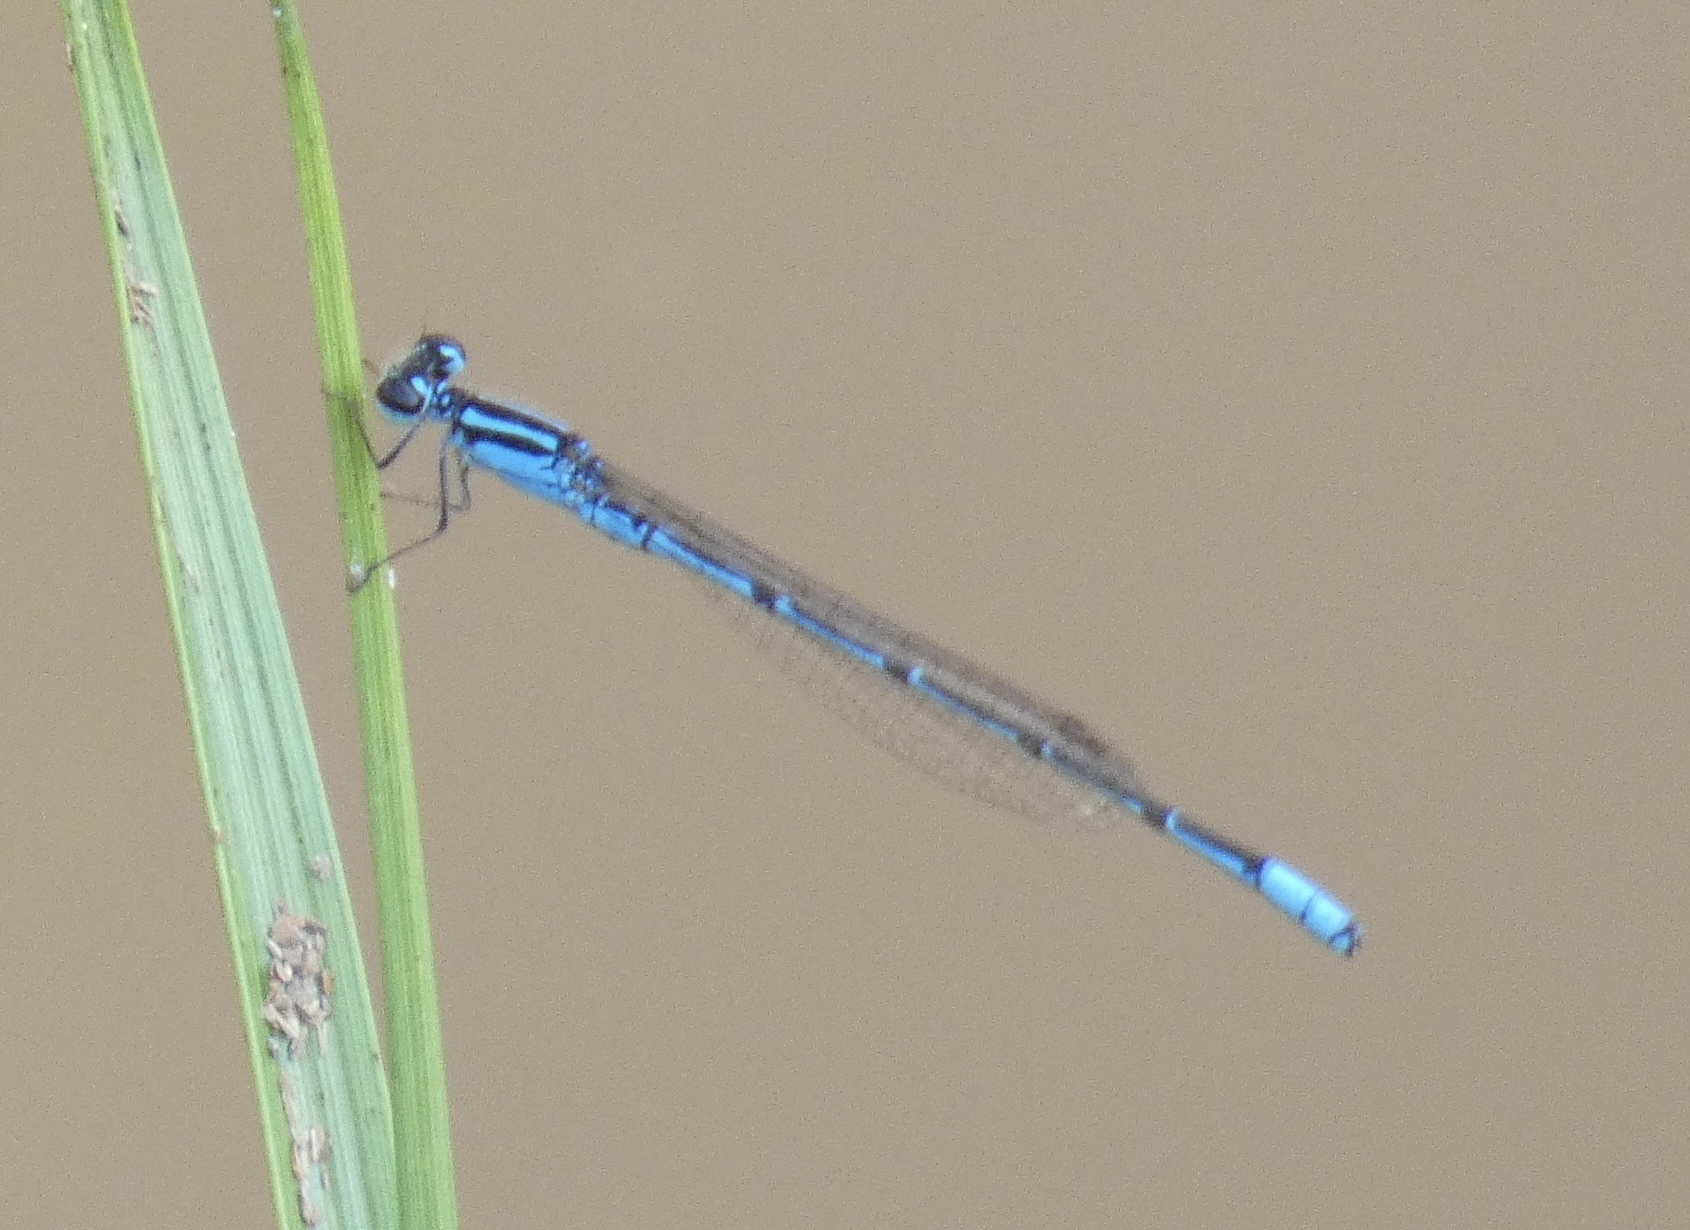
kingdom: Animalia
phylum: Arthropoda
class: Insecta
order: Odonata
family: Coenagrionidae
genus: Acanthagrion
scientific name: Acanthagrion temporale
